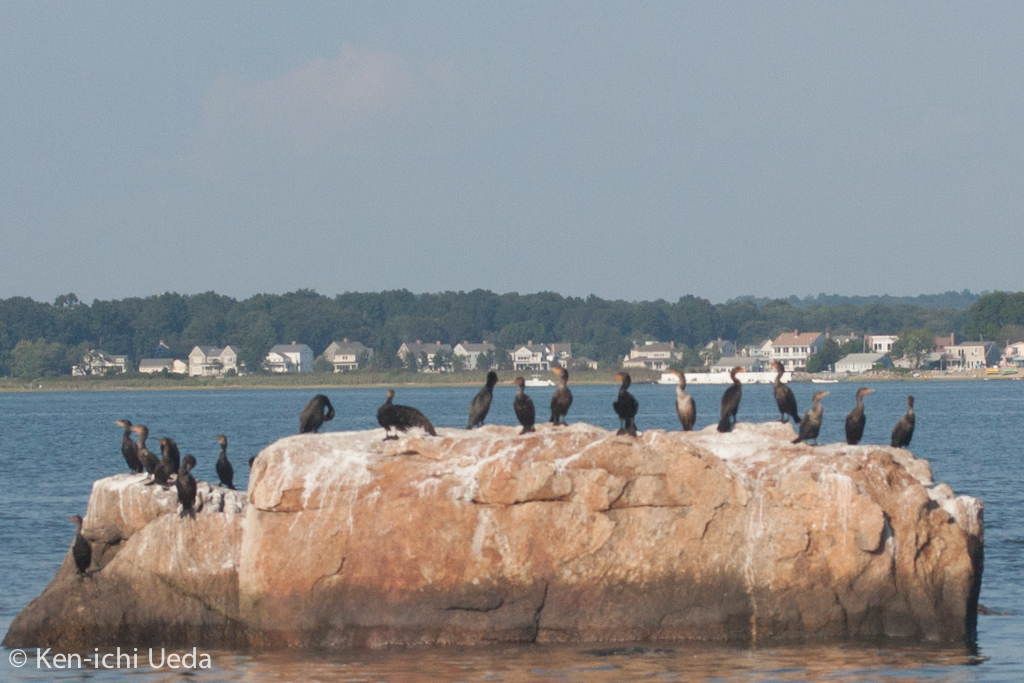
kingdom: Animalia
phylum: Chordata
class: Aves
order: Suliformes
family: Phalacrocoracidae
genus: Phalacrocorax
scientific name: Phalacrocorax auritus
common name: Double-crested cormorant
